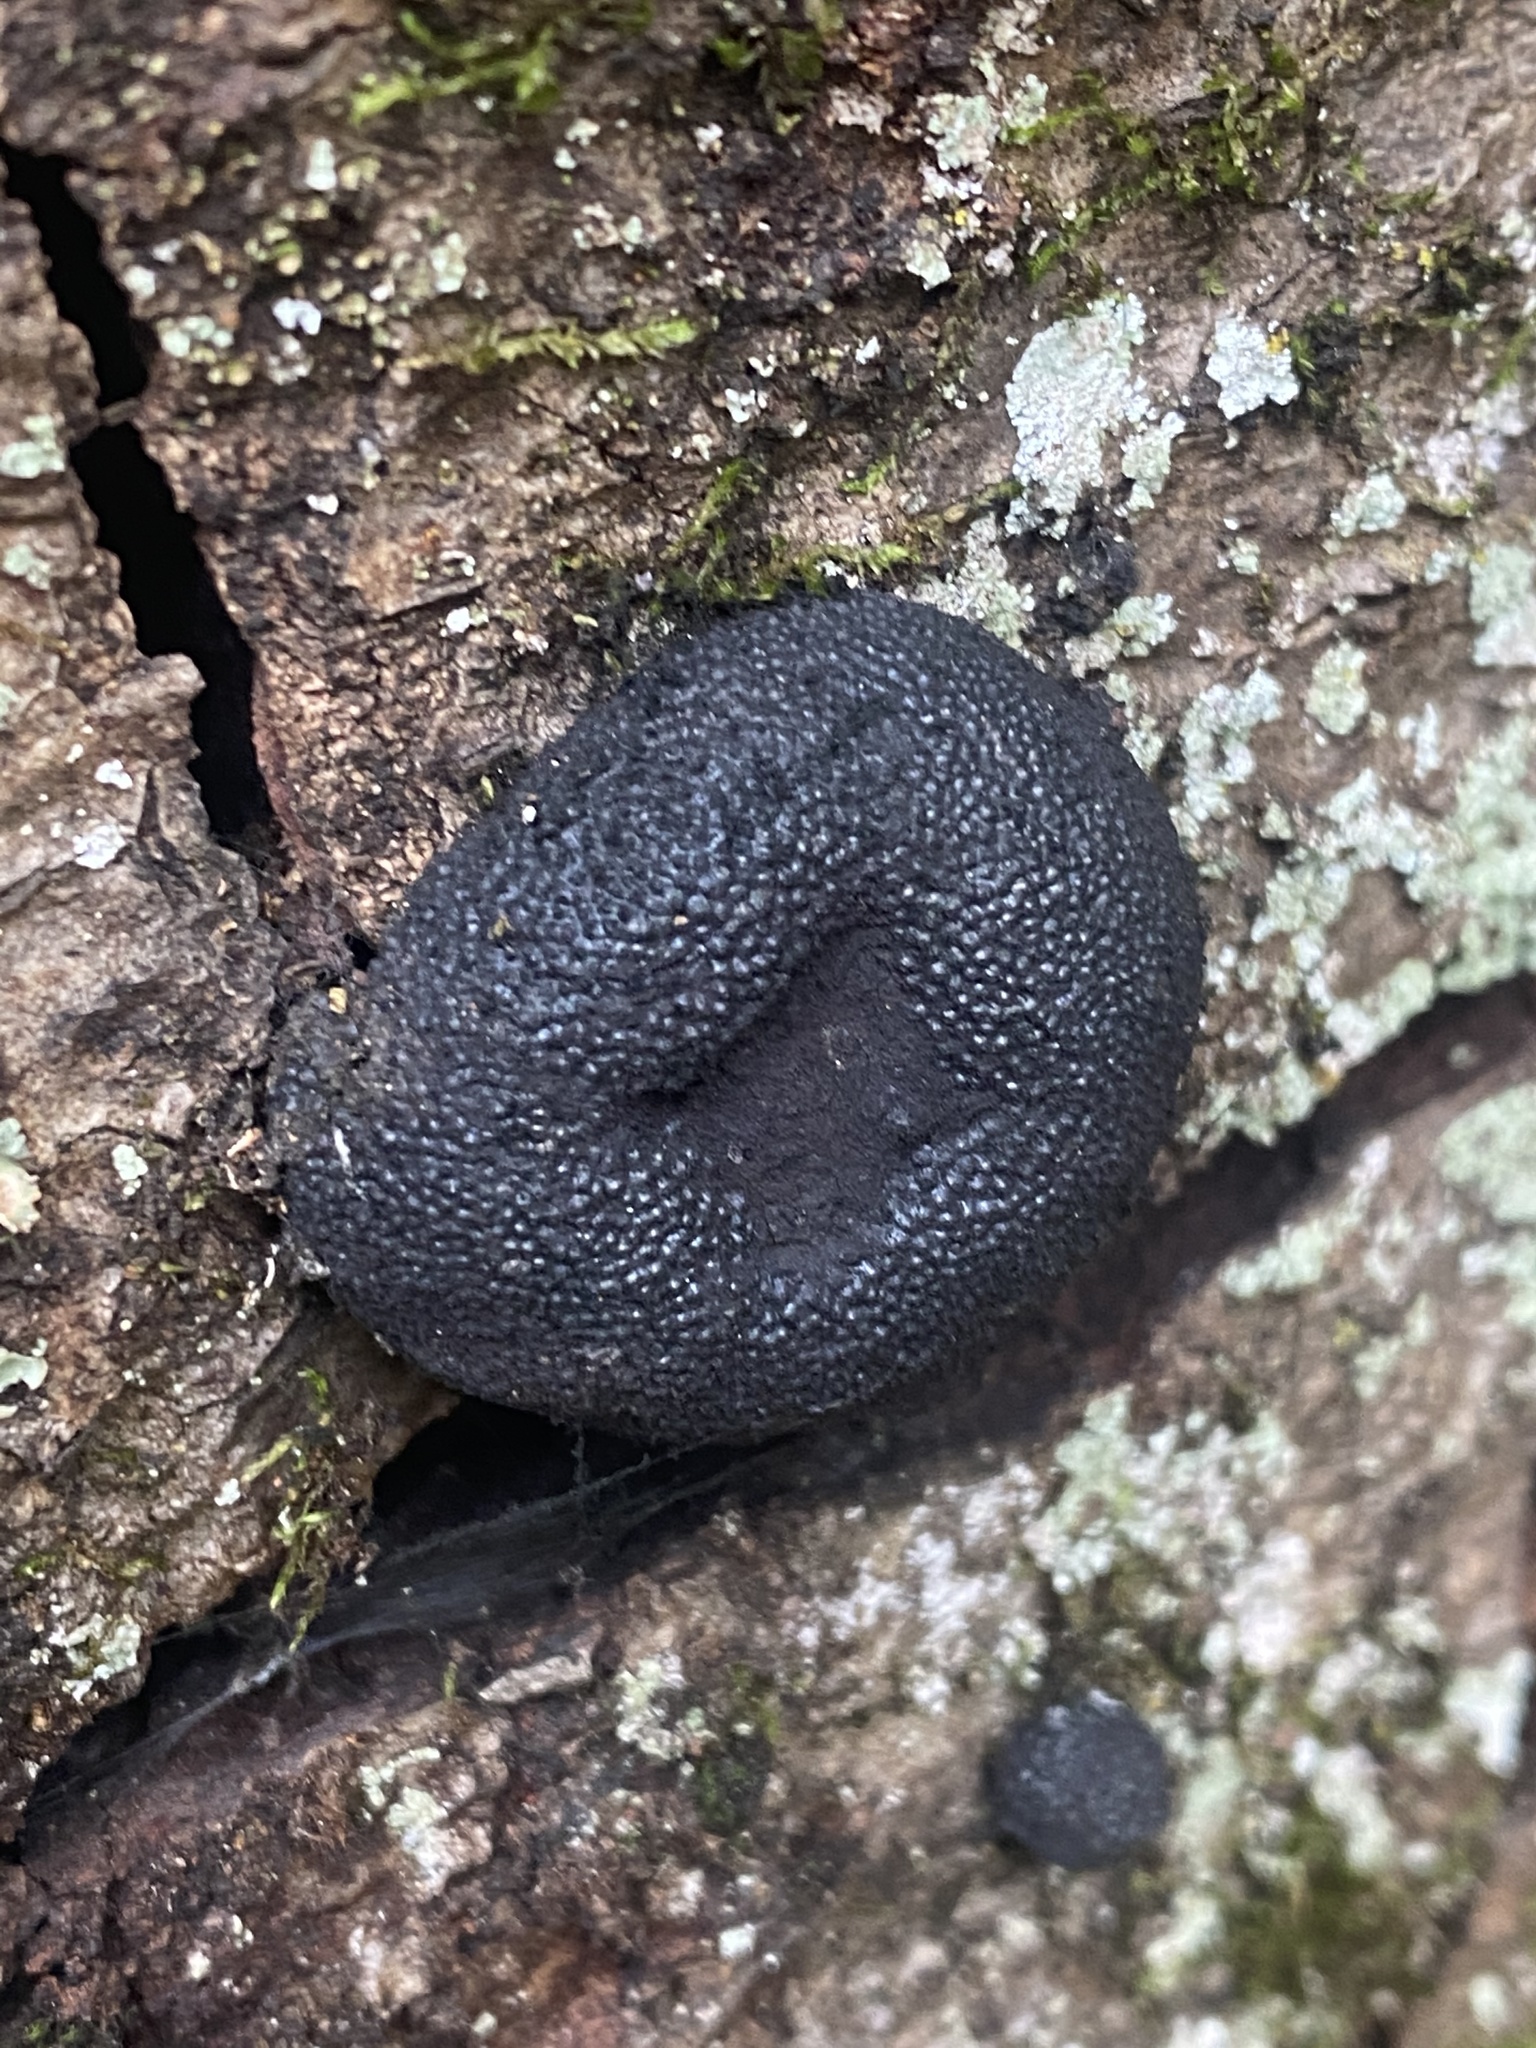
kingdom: Fungi
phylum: Ascomycota
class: Sordariomycetes
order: Xylariales
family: Hypoxylaceae
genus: Annulohypoxylon
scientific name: Annulohypoxylon thouarsianum
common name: Cramp balls
